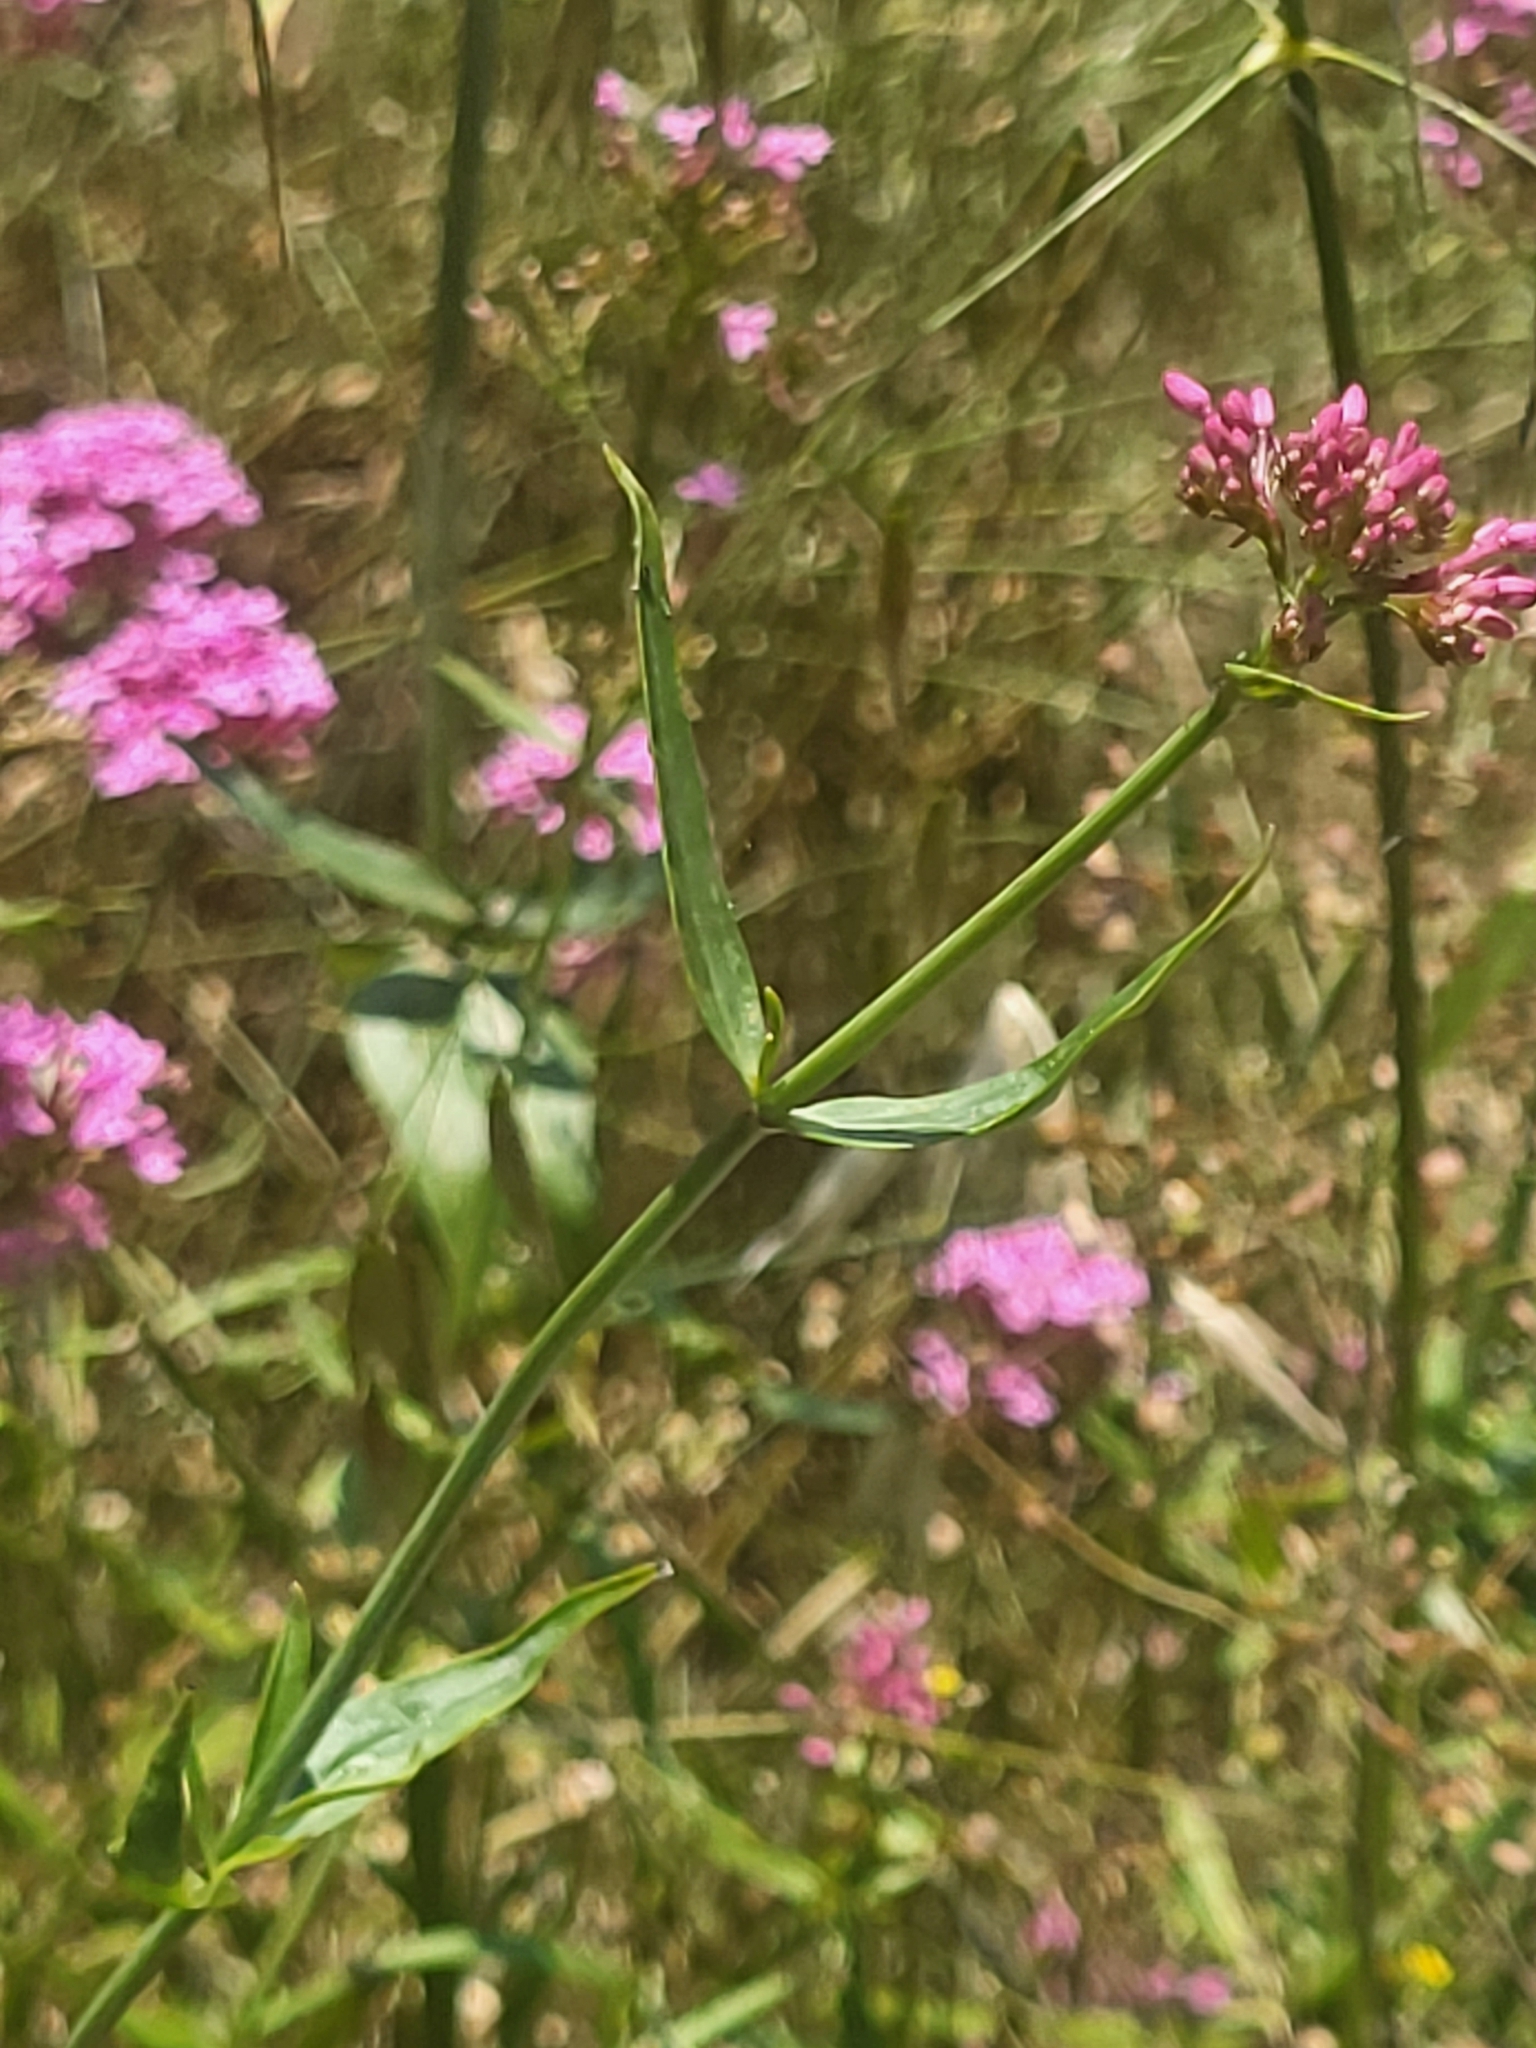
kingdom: Plantae
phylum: Tracheophyta
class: Magnoliopsida
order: Dipsacales
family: Caprifoliaceae
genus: Centranthus
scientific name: Centranthus ruber
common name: Red valerian
